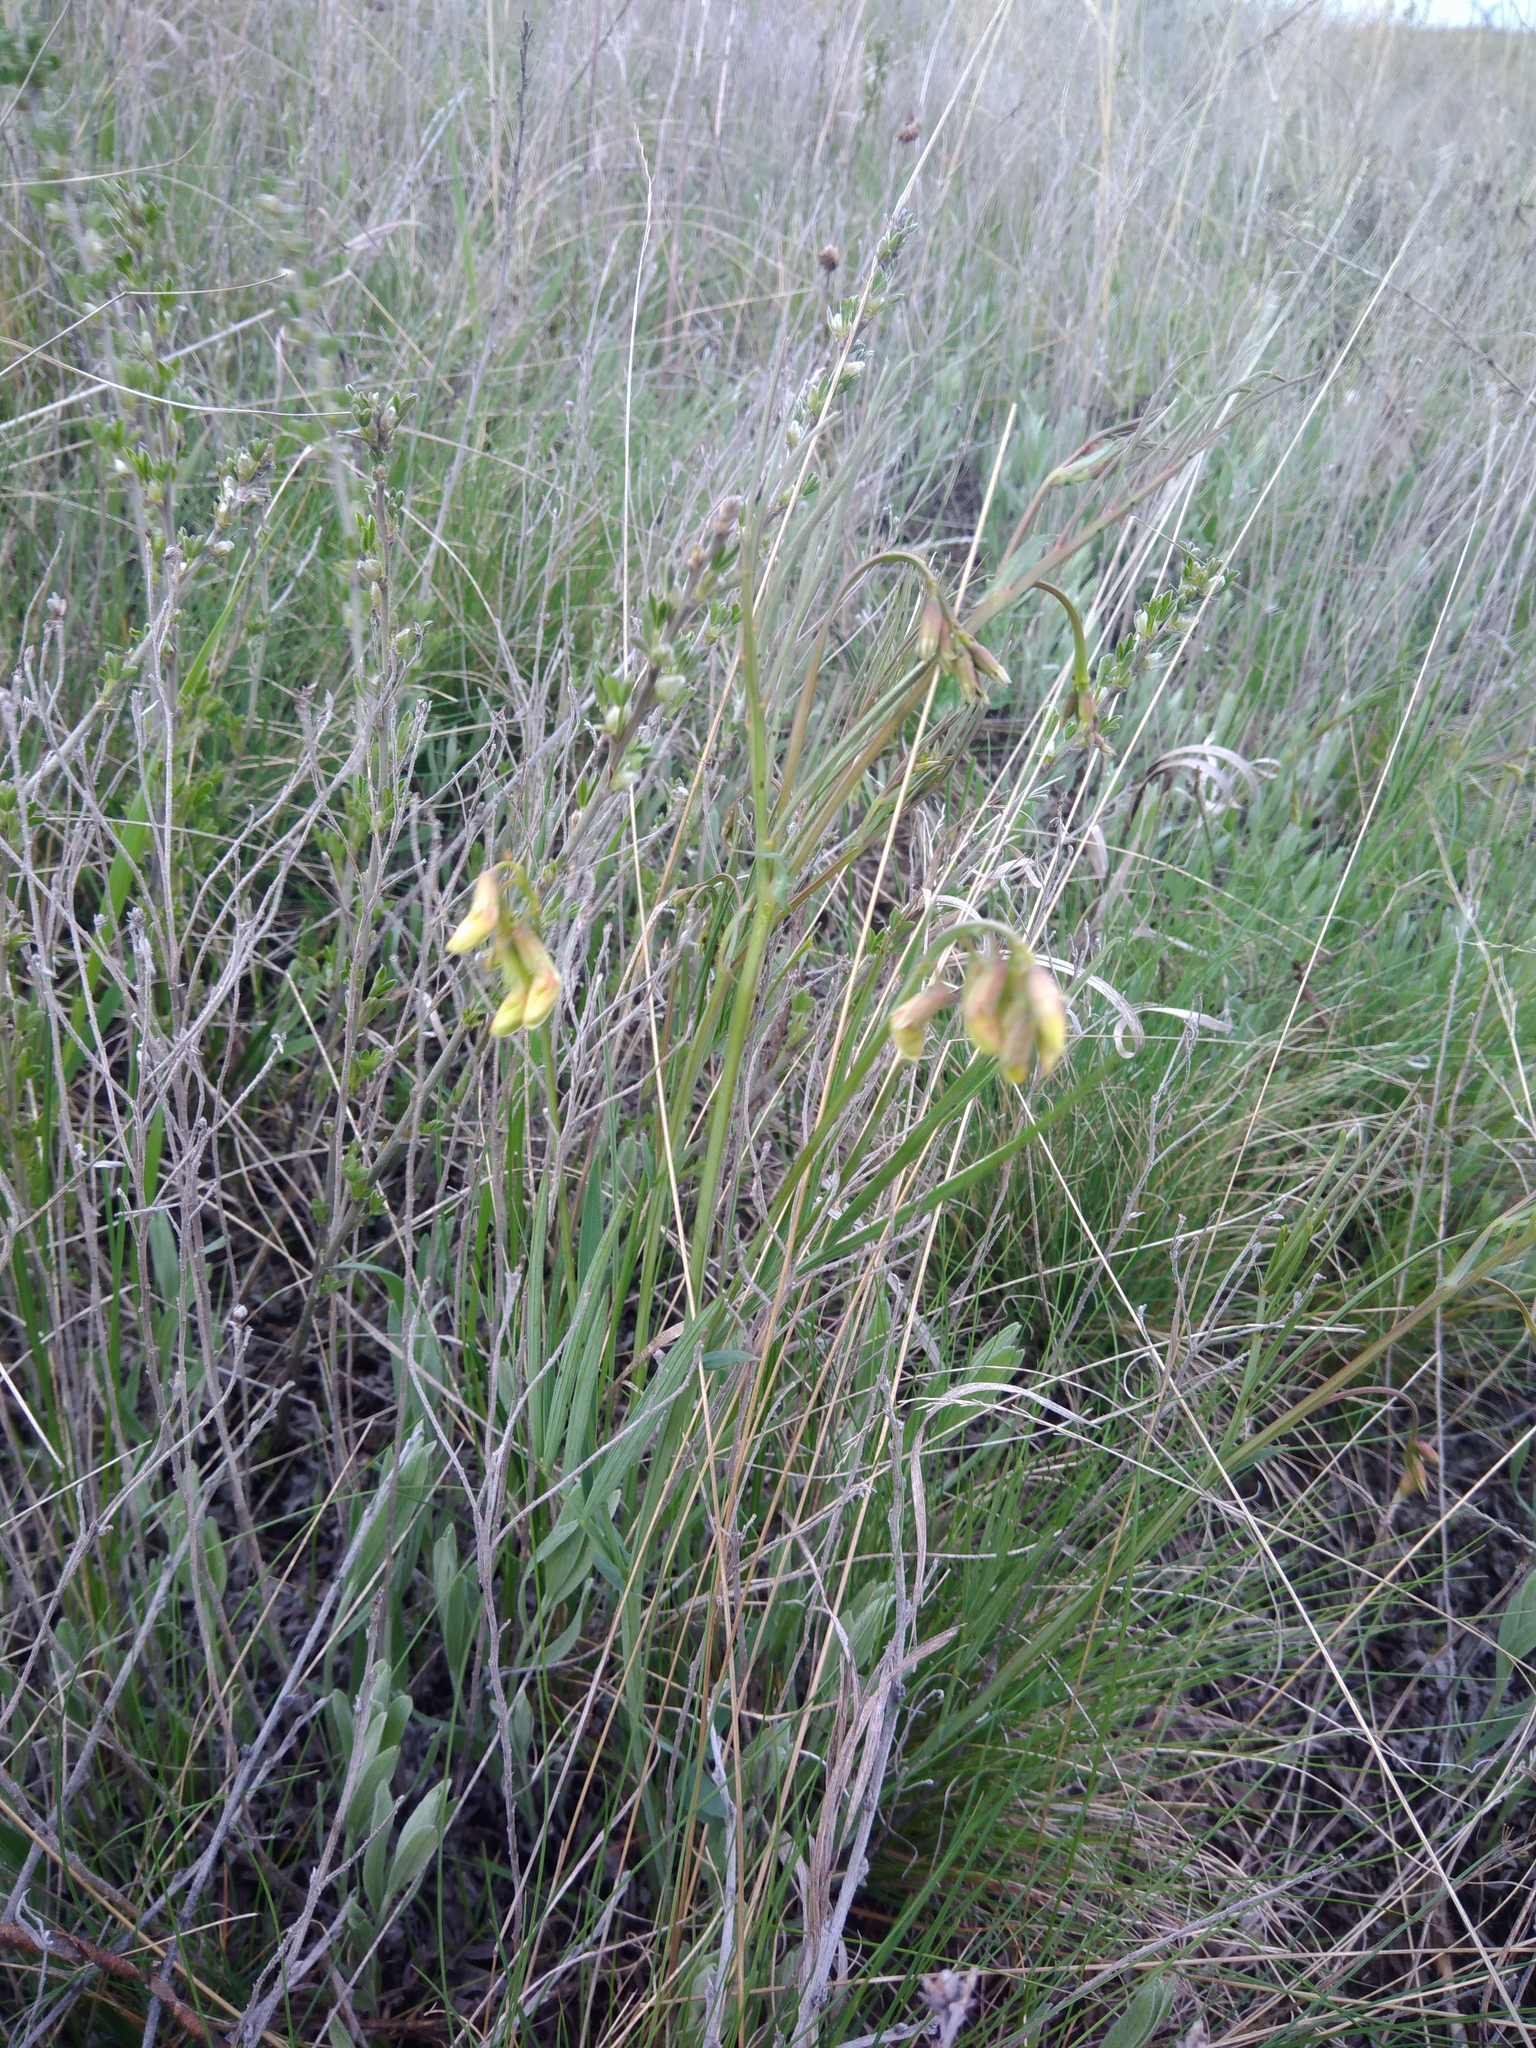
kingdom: Plantae
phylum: Tracheophyta
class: Magnoliopsida
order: Fabales
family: Fabaceae
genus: Lathyrus
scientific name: Lathyrus pannonicus
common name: Pea
